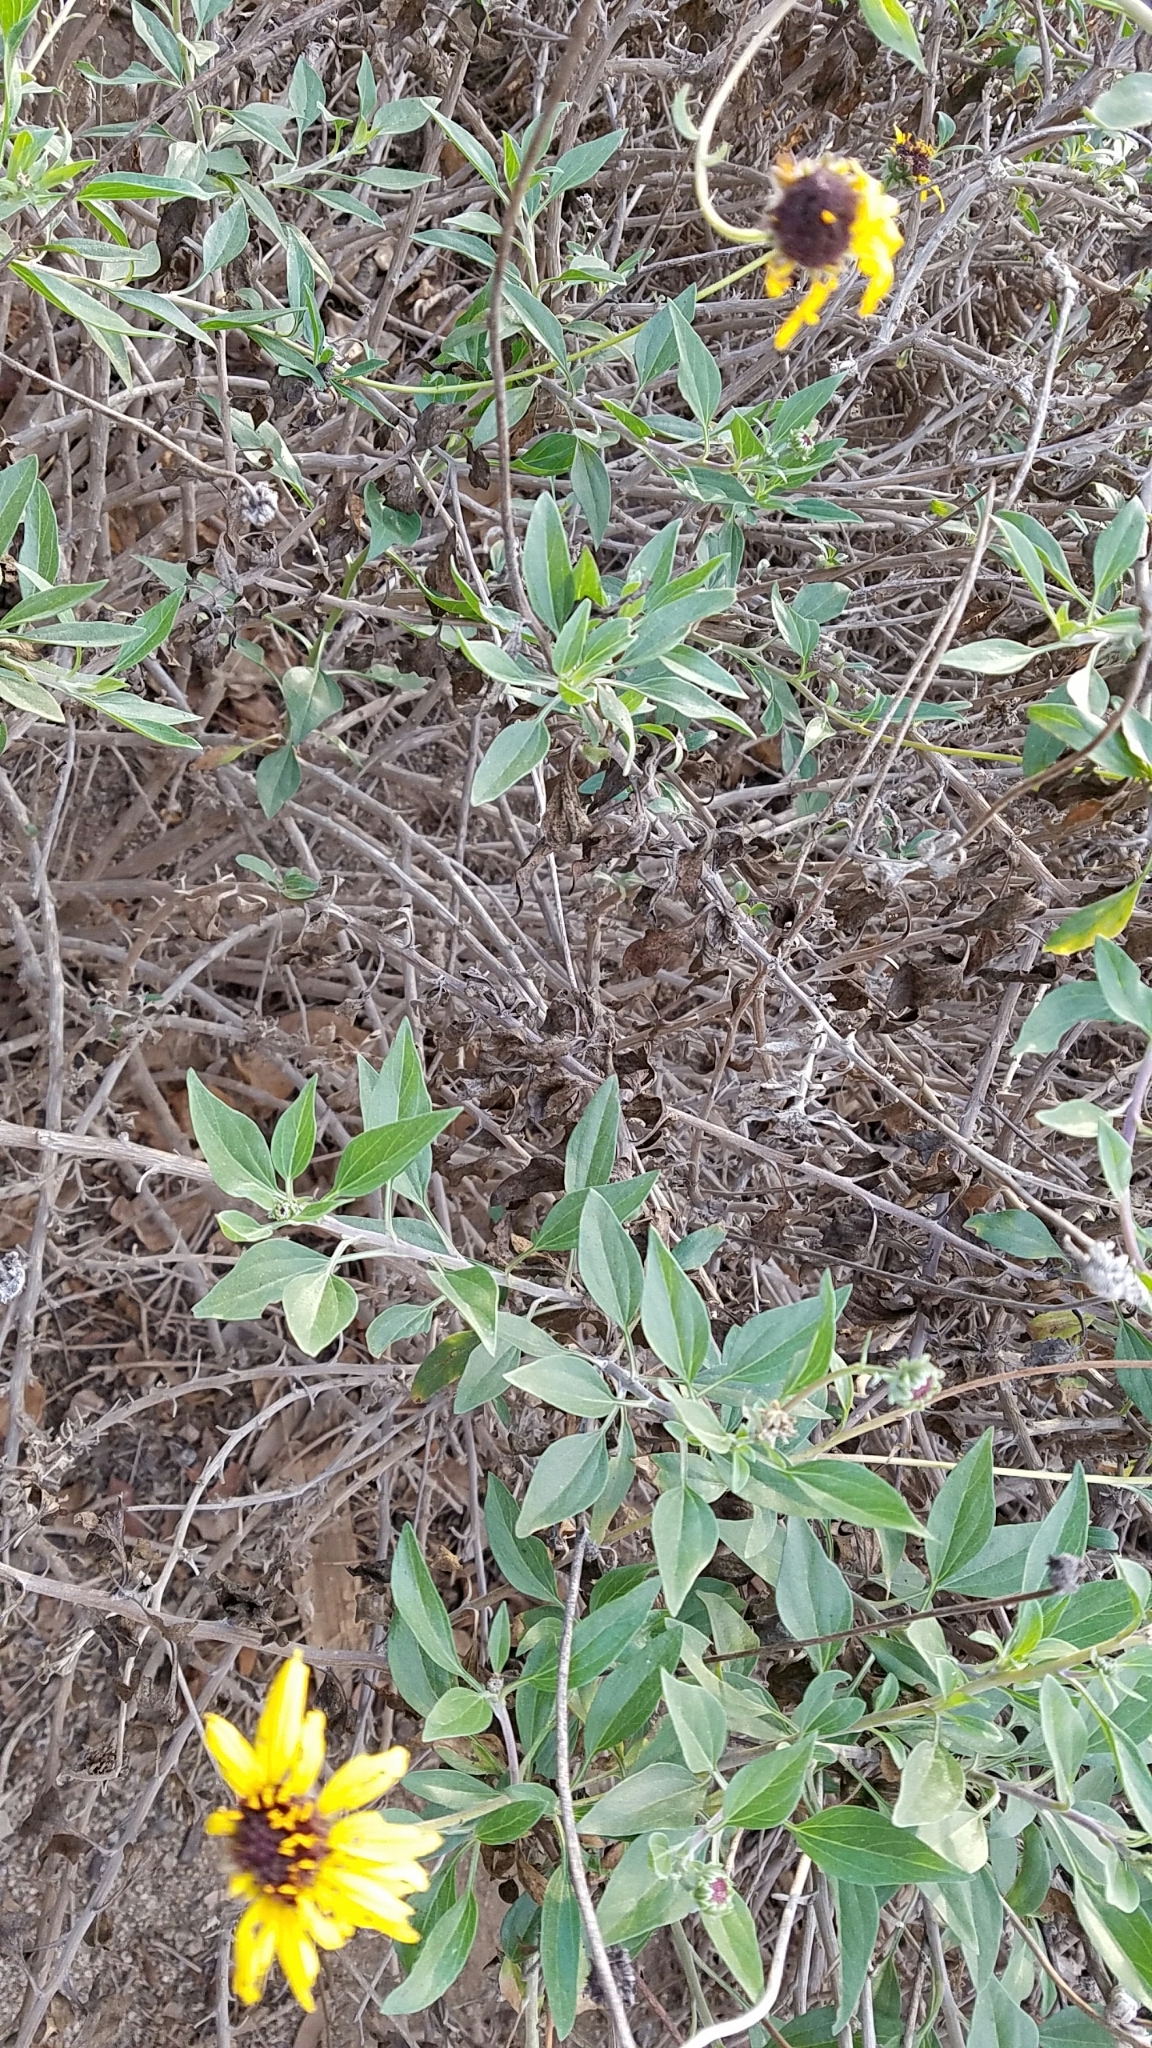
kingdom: Plantae
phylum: Tracheophyta
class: Magnoliopsida
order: Asterales
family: Asteraceae
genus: Encelia
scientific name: Encelia californica
